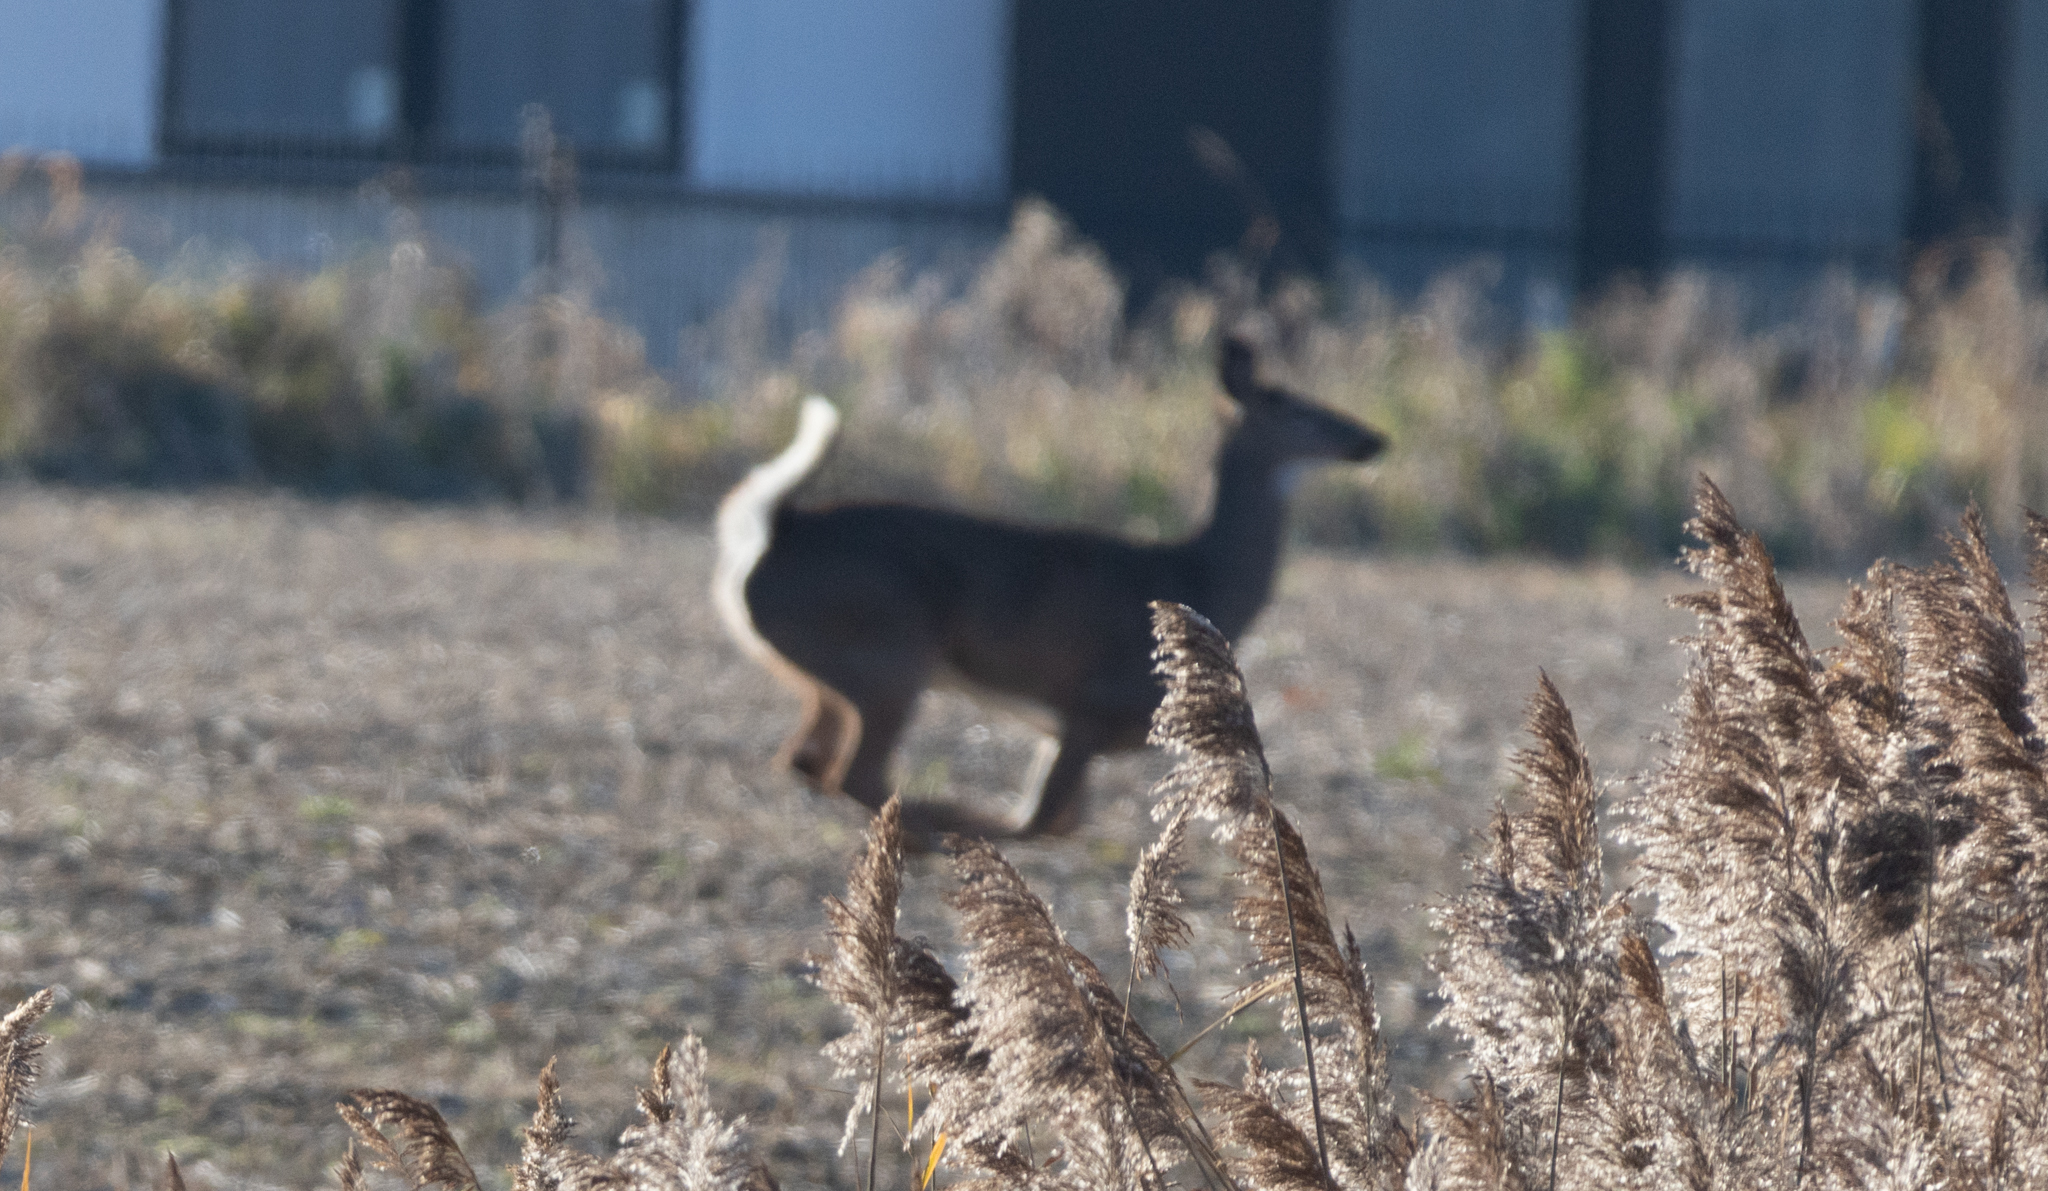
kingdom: Animalia
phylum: Chordata
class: Mammalia
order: Artiodactyla
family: Cervidae
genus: Odocoileus
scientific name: Odocoileus virginianus
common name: White-tailed deer
